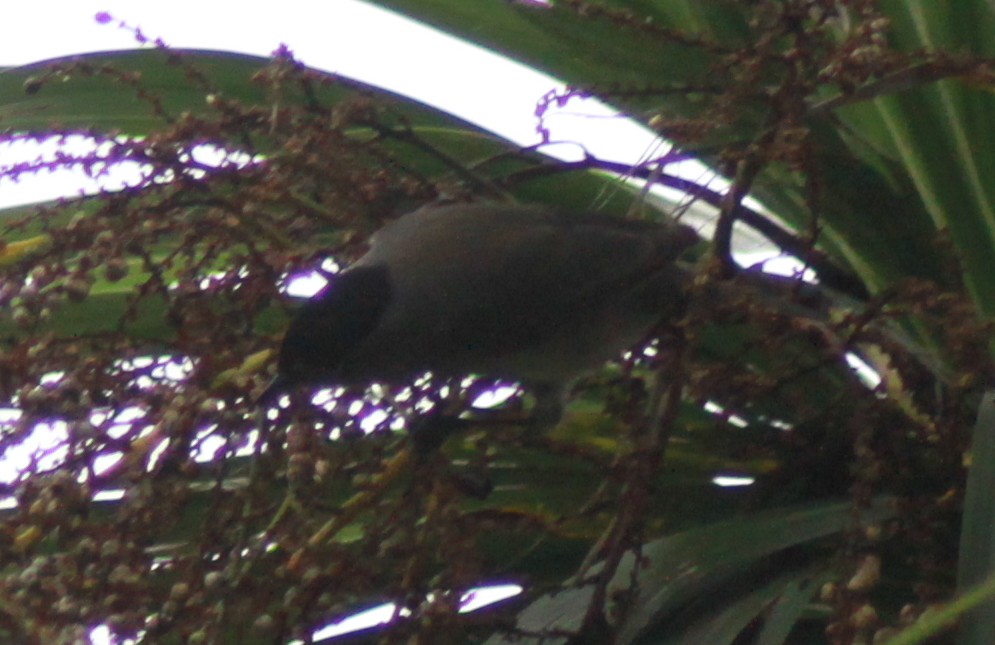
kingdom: Animalia
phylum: Chordata
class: Aves
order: Passeriformes
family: Sylviidae
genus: Sylvia
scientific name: Sylvia atricapilla
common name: Eurasian blackcap
